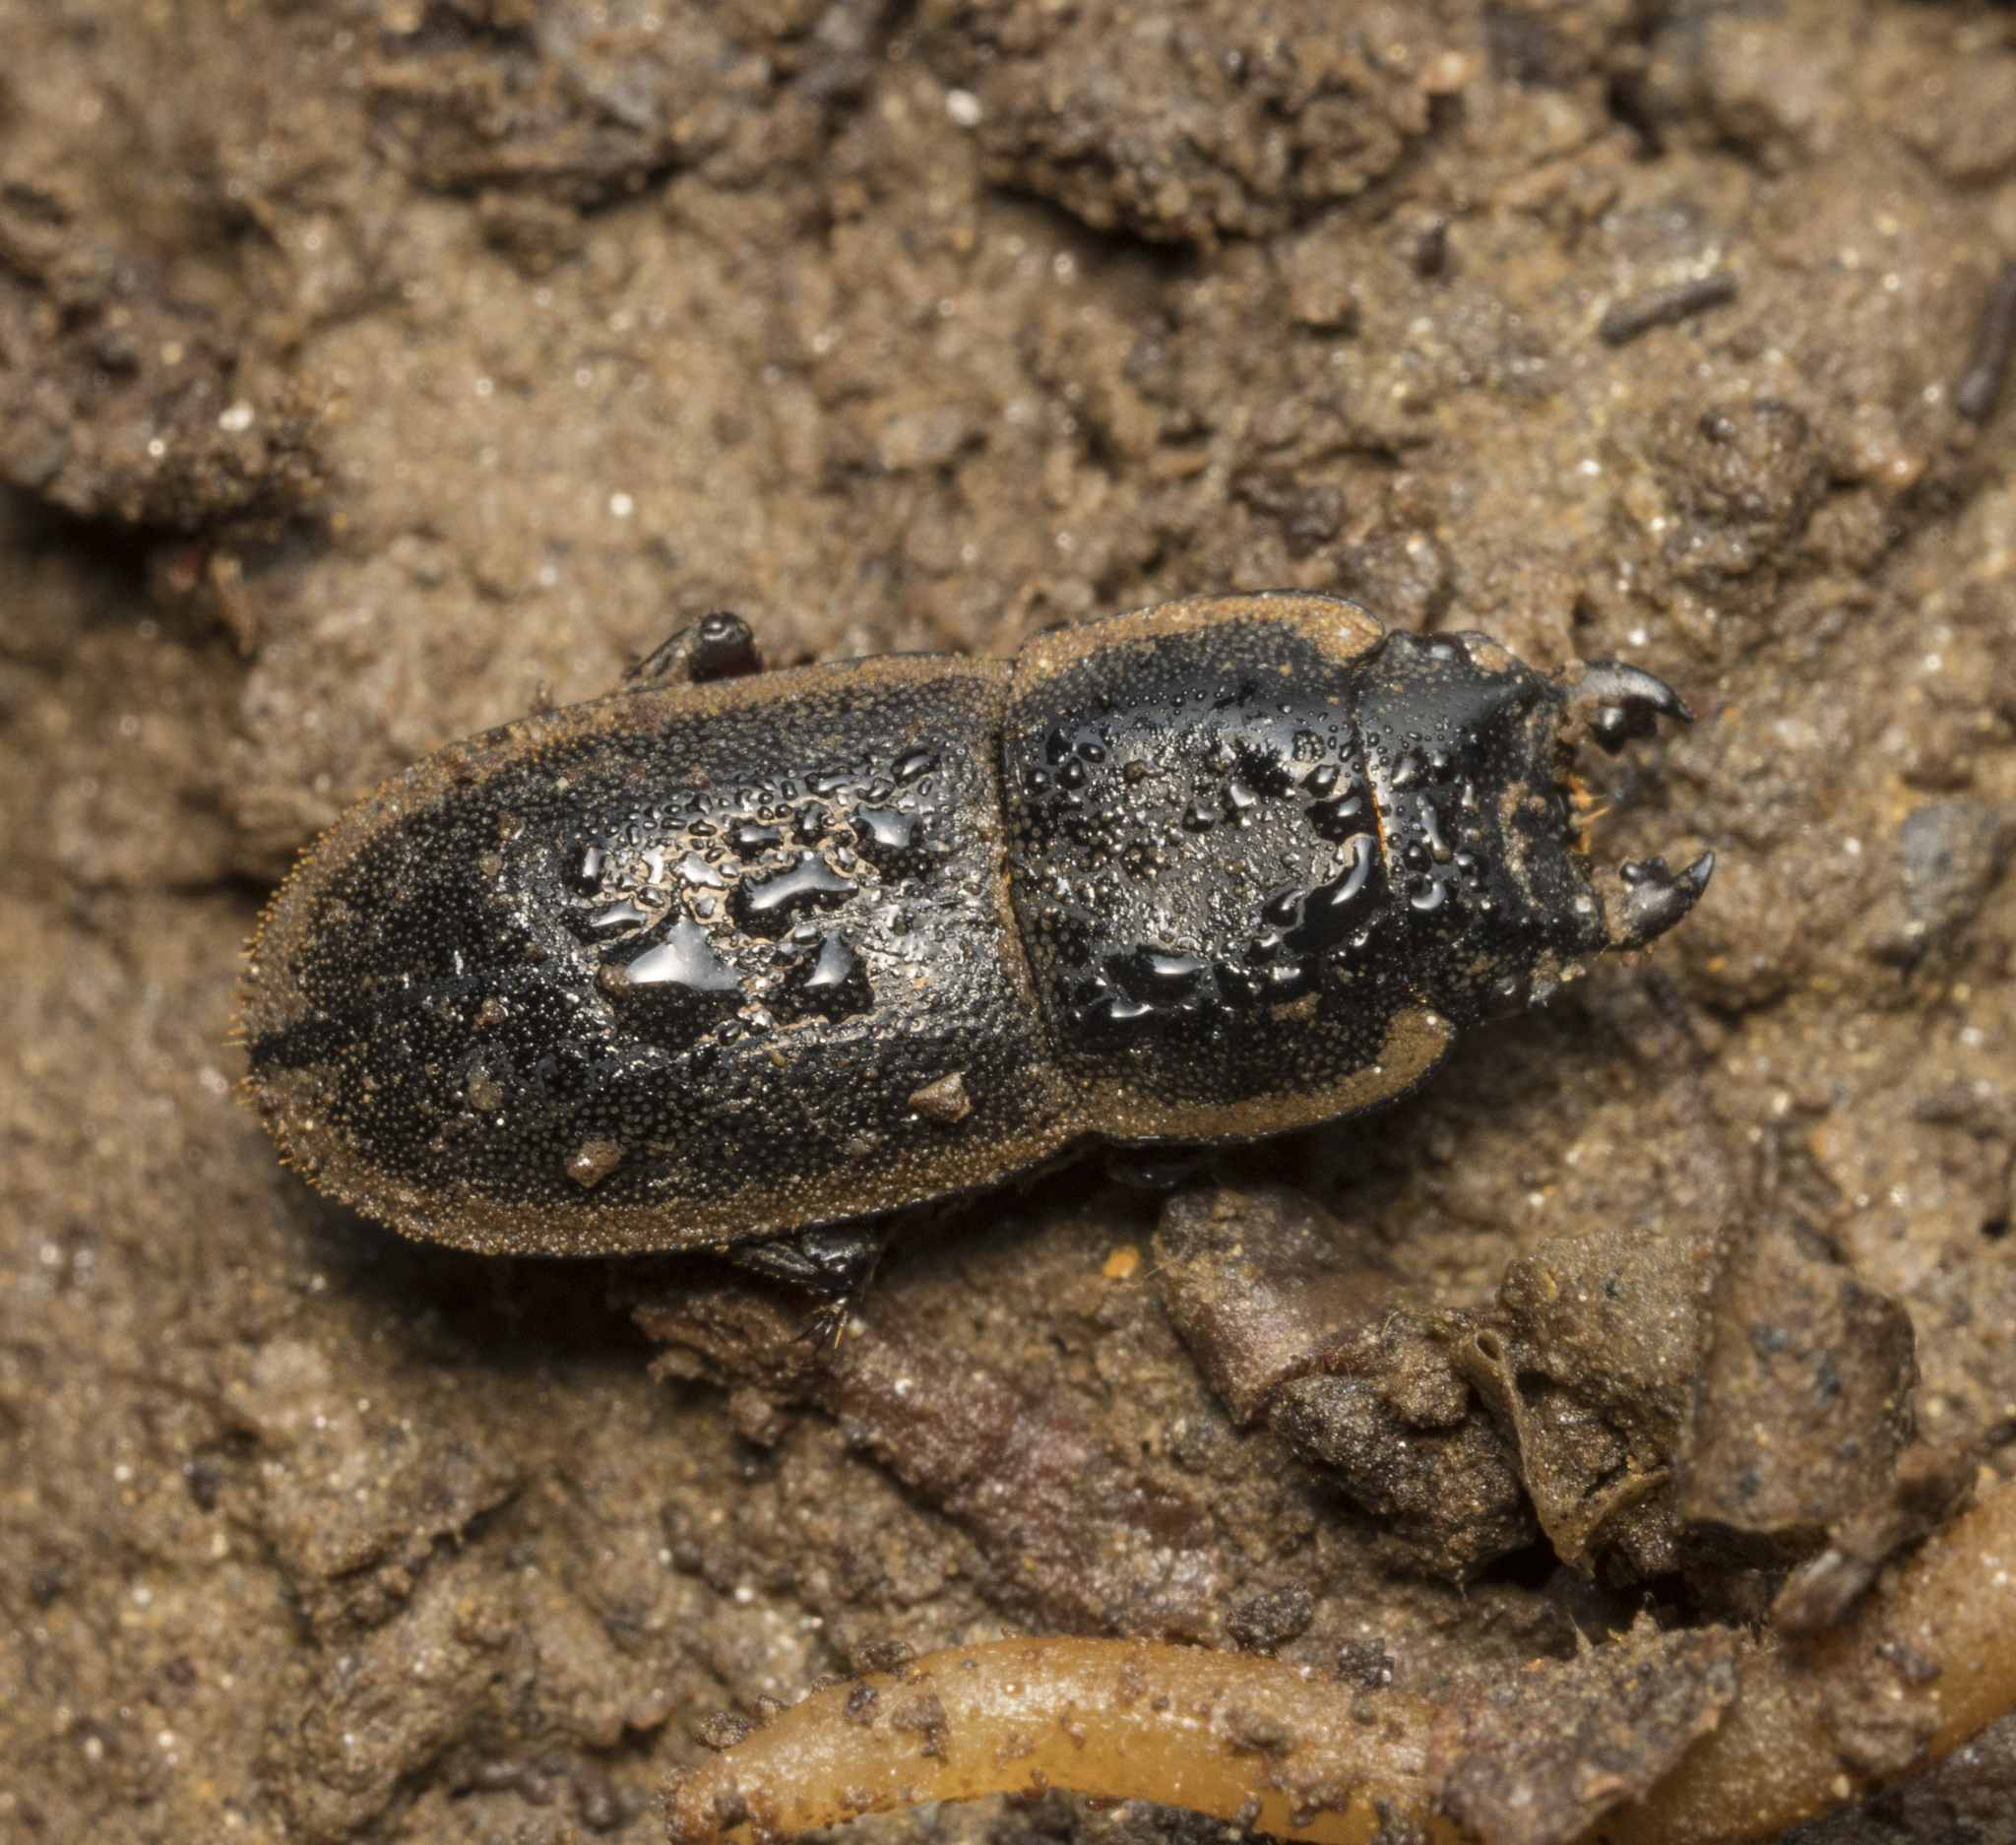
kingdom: Animalia
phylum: Arthropoda
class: Insecta
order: Coleoptera
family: Lucanidae
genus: Erichius
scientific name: Erichius femoralis
